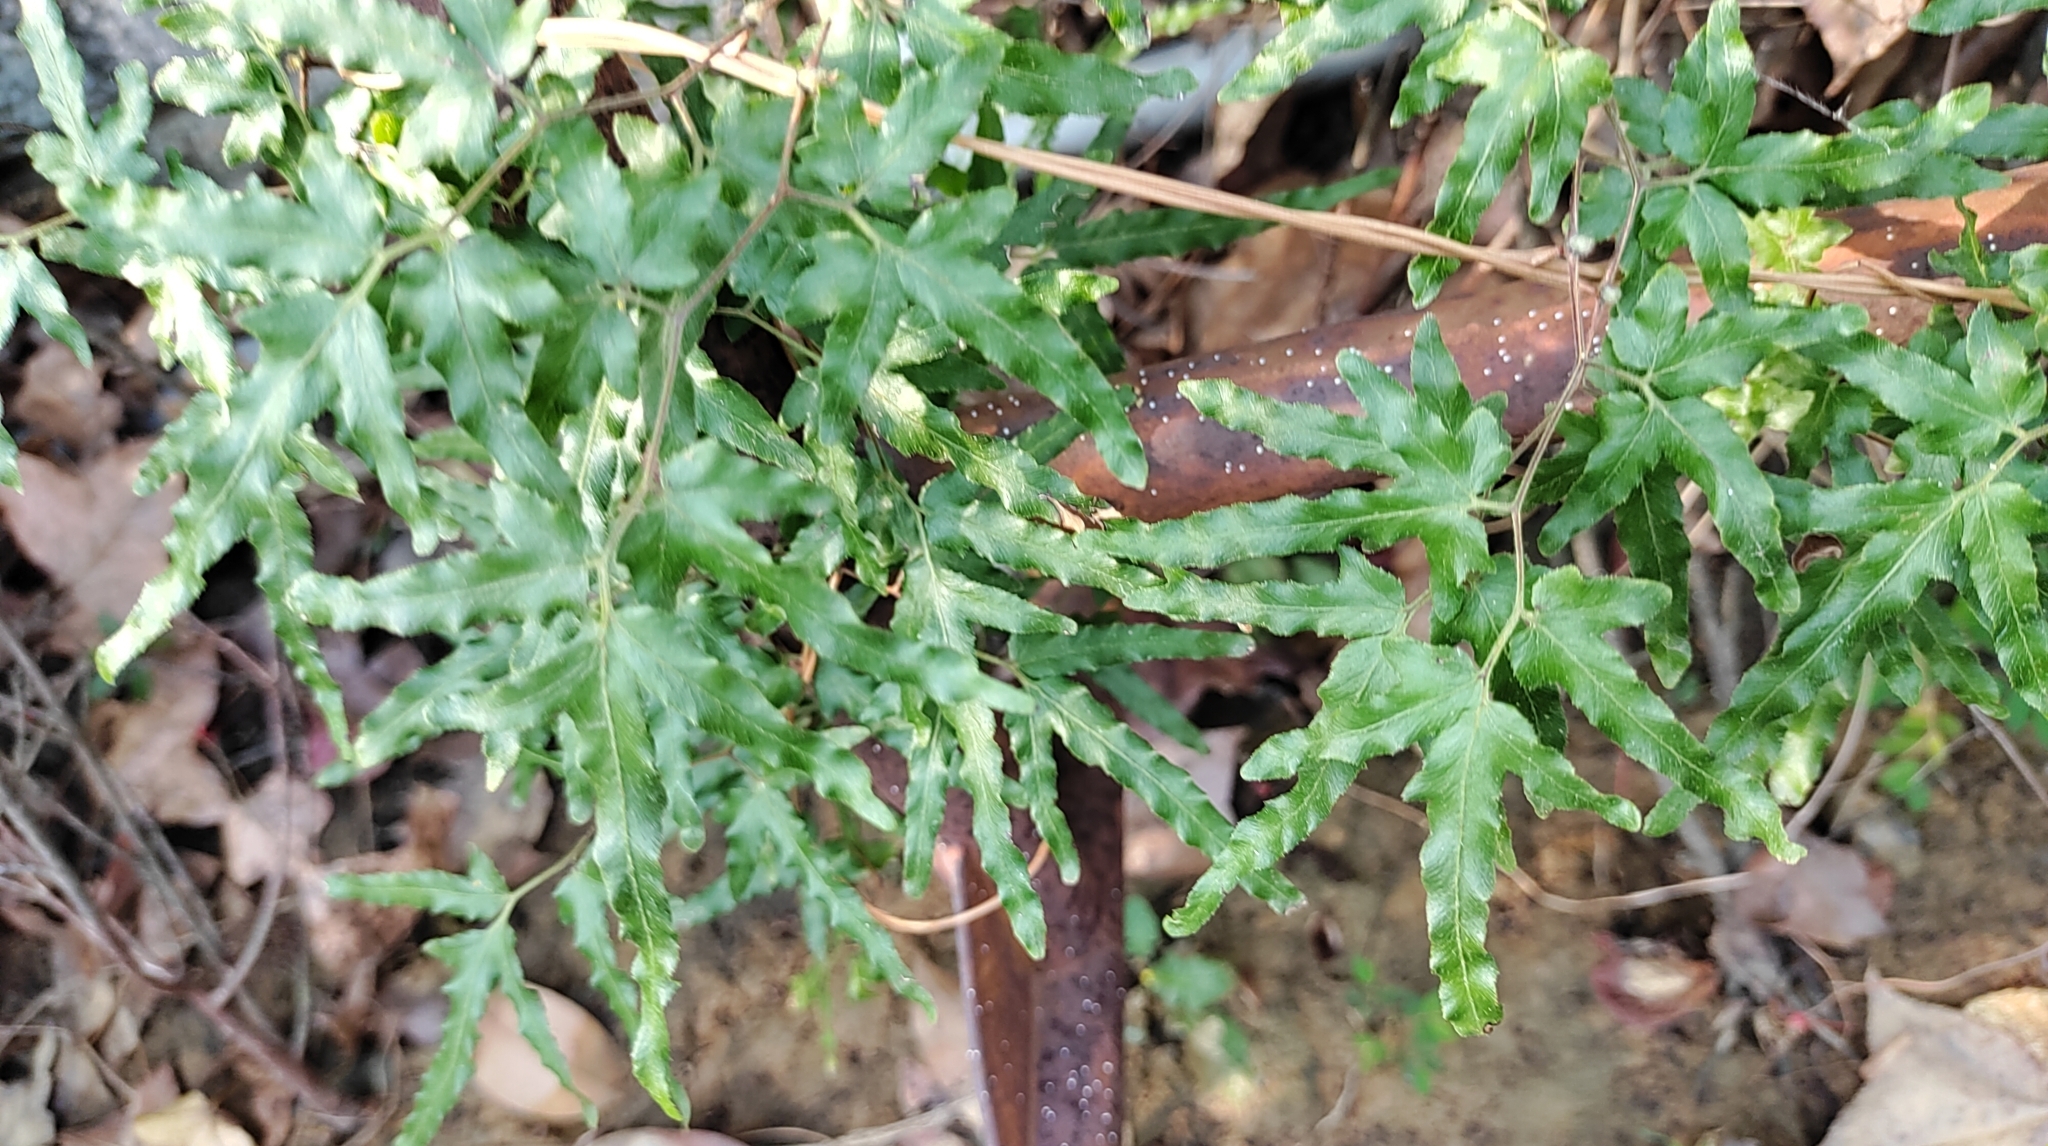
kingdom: Plantae
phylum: Tracheophyta
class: Polypodiopsida
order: Schizaeales
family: Lygodiaceae
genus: Lygodium
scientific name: Lygodium japonicum
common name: Japanese climbing fern
